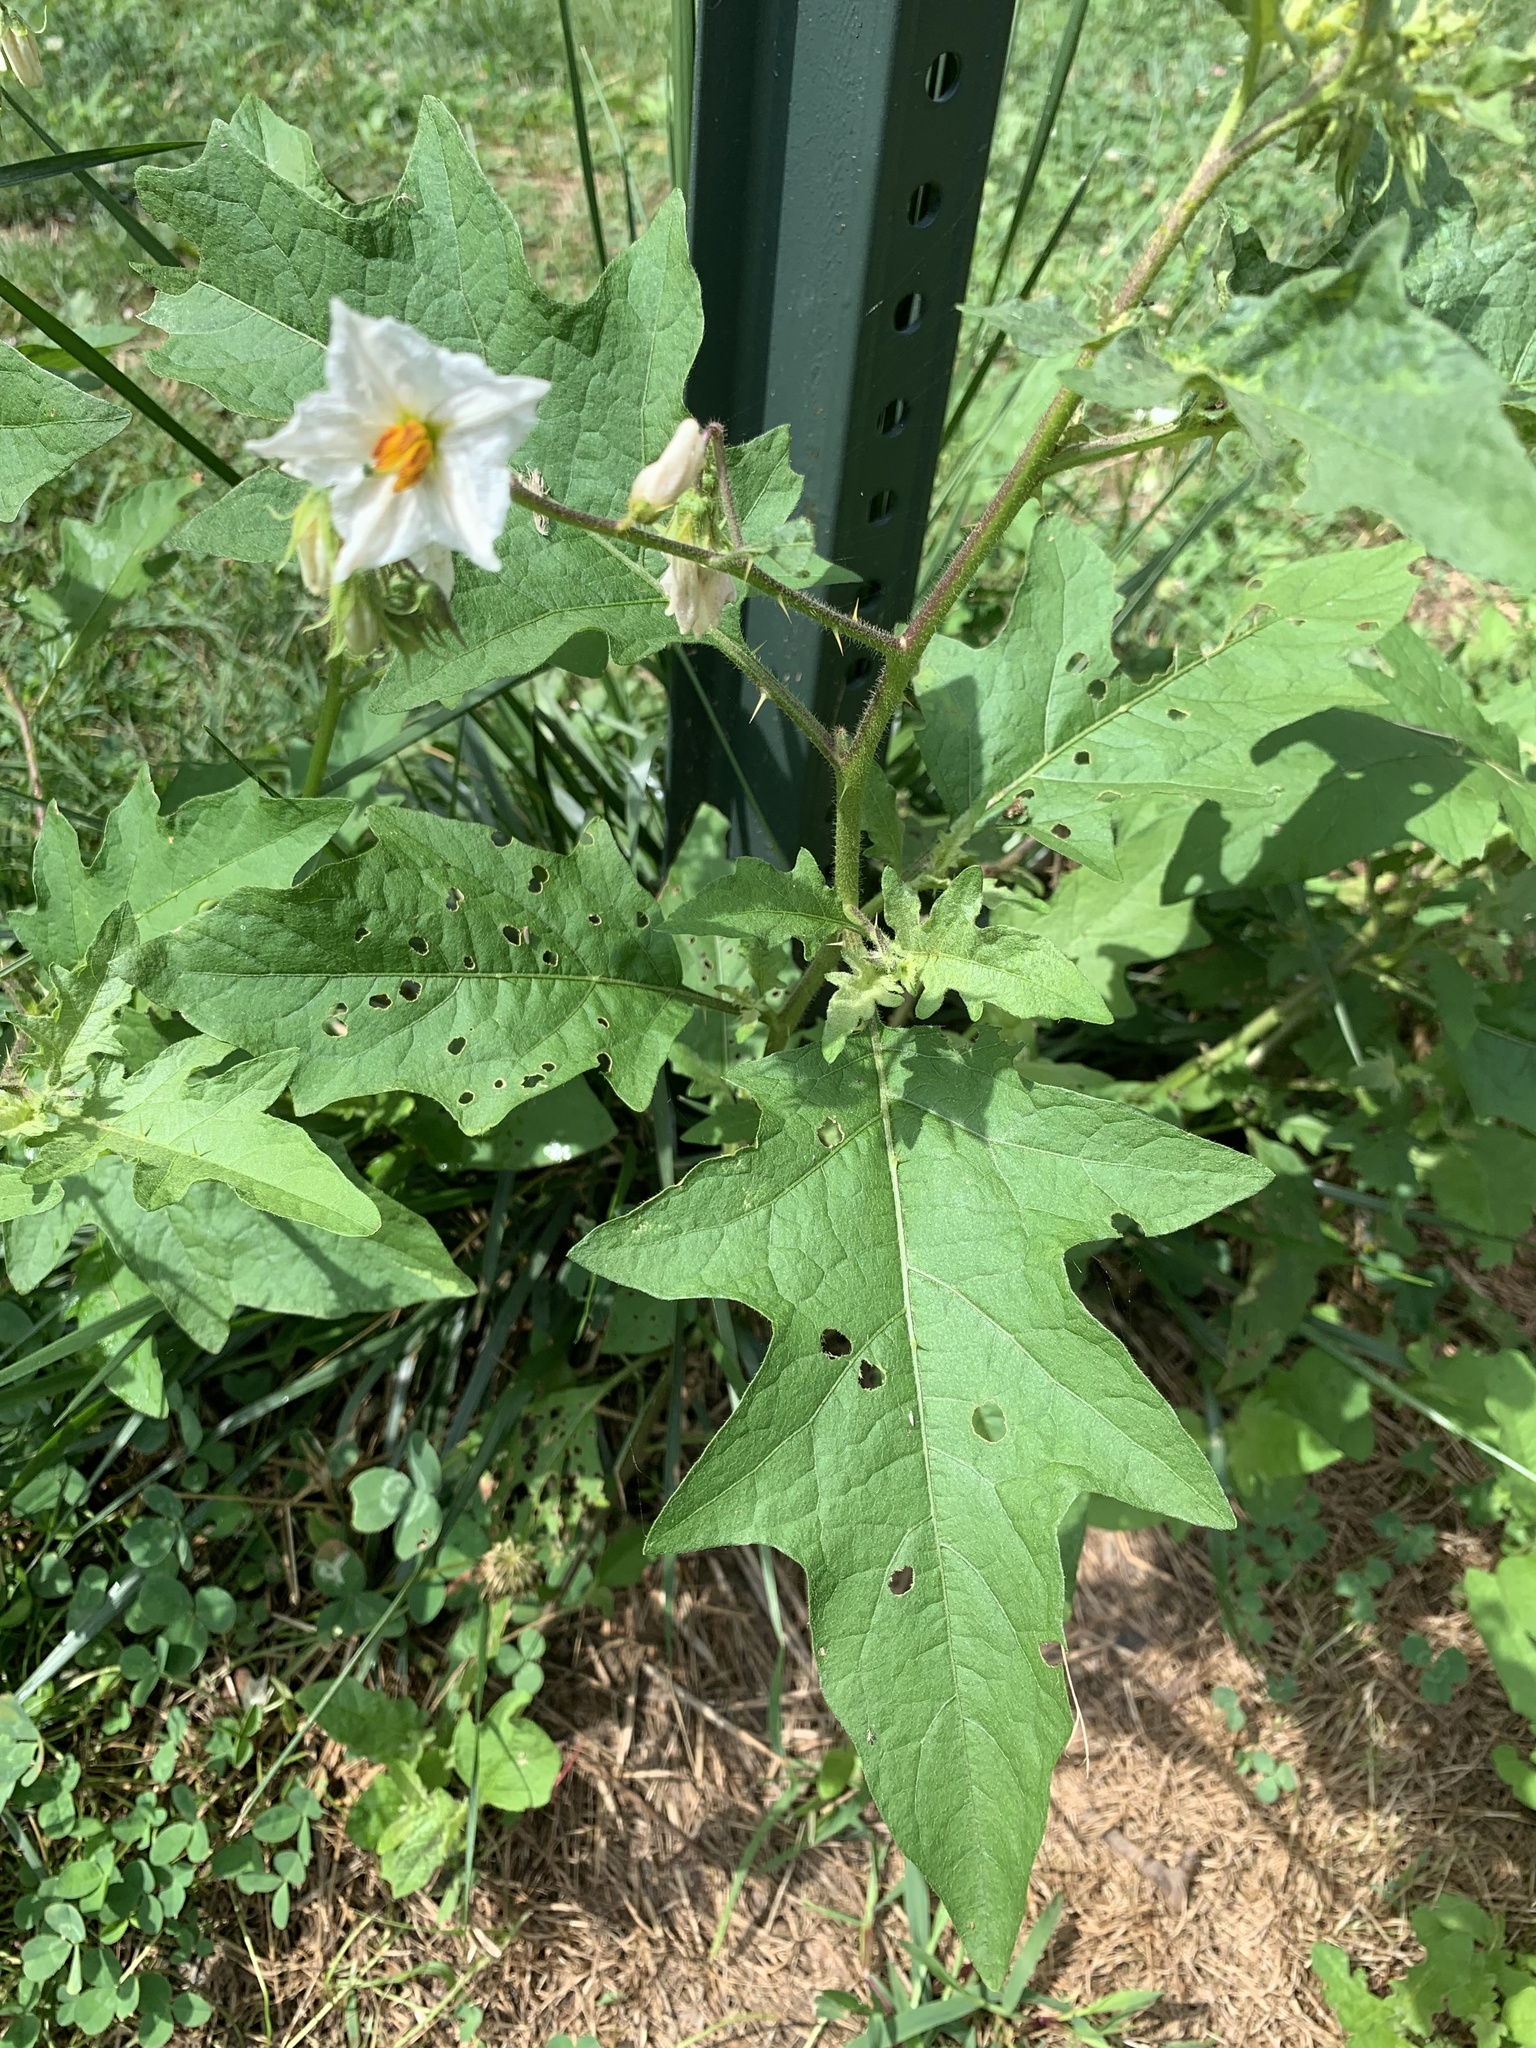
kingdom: Plantae
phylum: Tracheophyta
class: Magnoliopsida
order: Solanales
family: Solanaceae
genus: Solanum
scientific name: Solanum carolinense
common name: Horse-nettle
